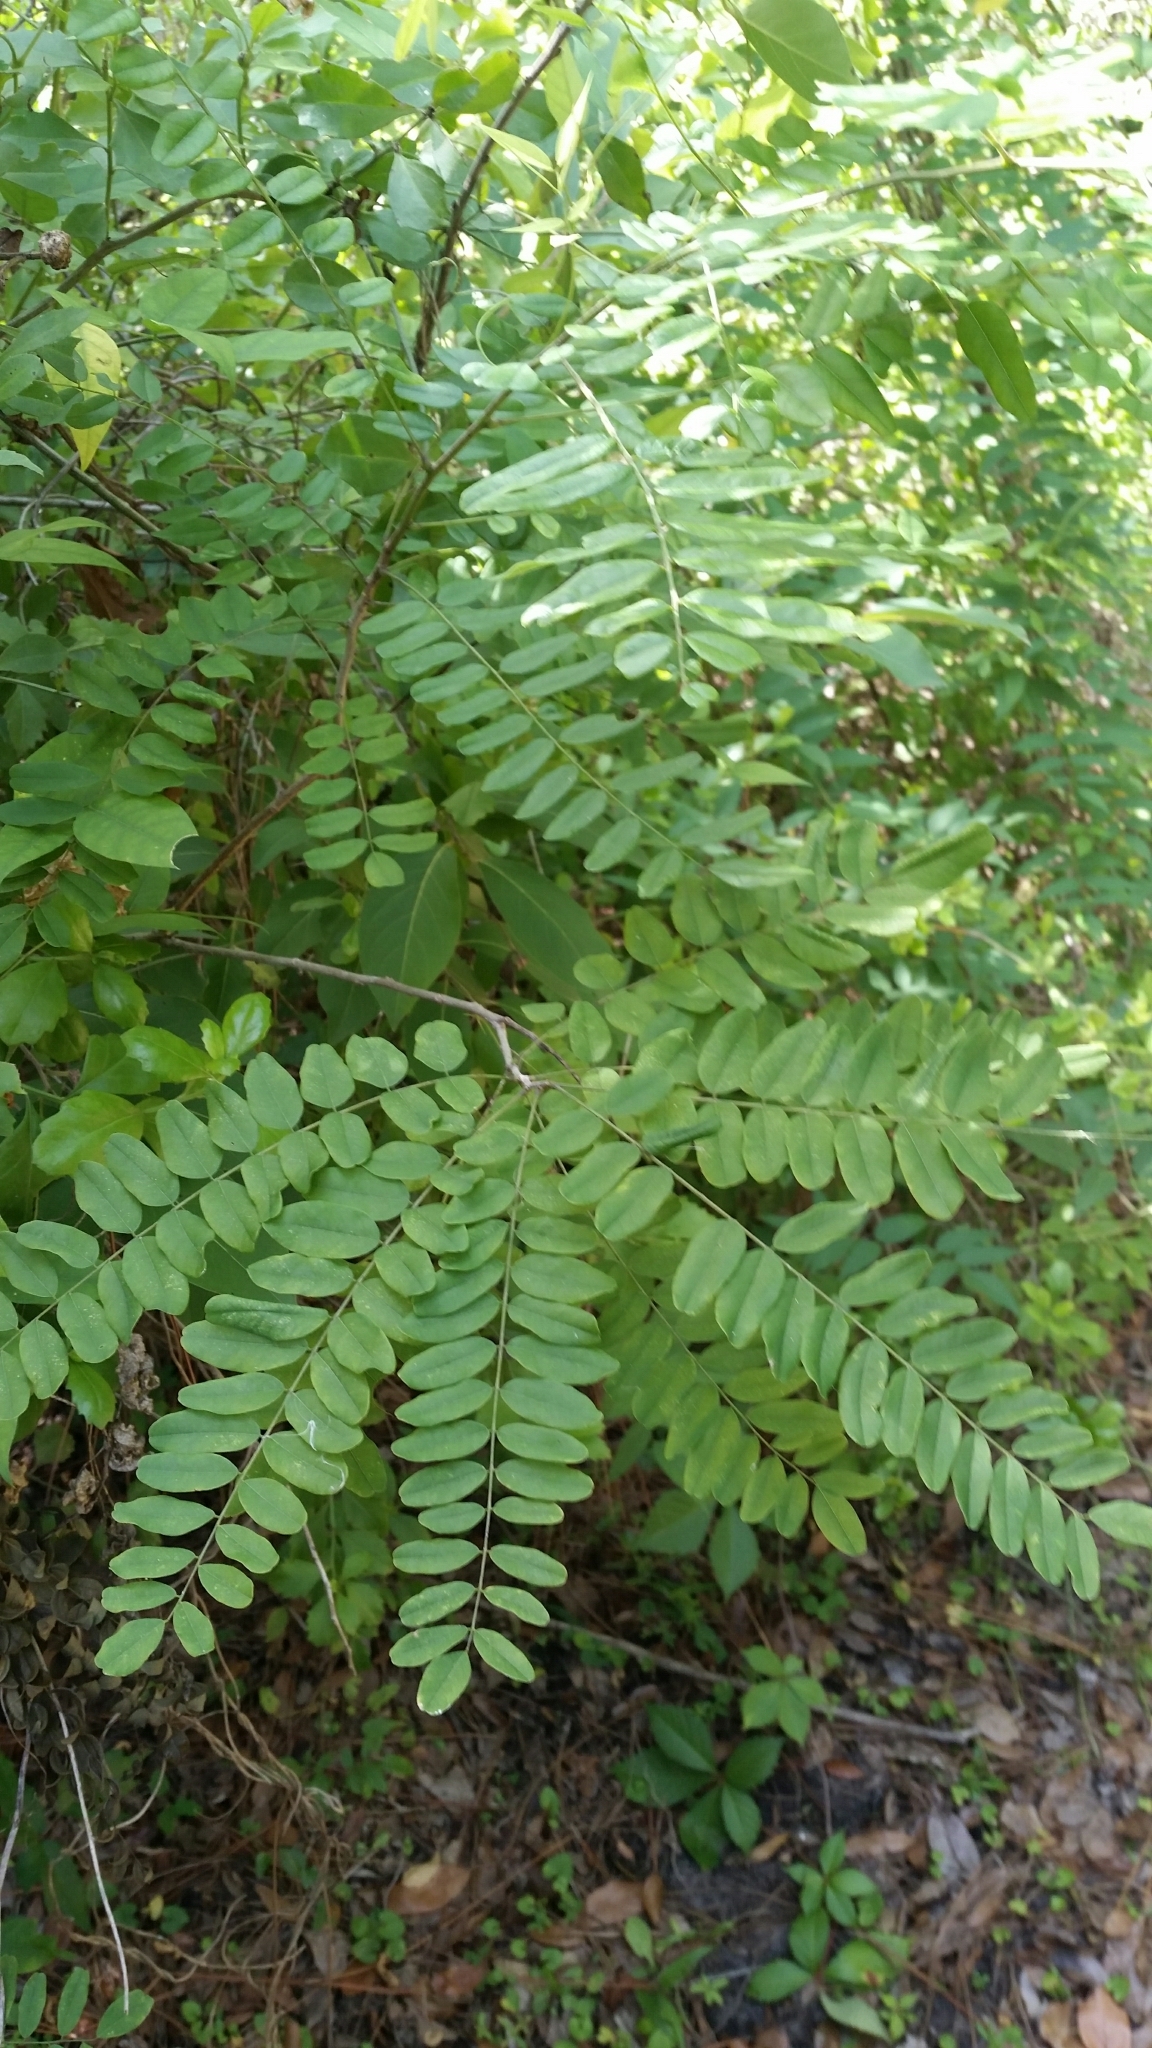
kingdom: Plantae
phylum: Tracheophyta
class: Magnoliopsida
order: Fabales
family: Fabaceae
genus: Amorpha
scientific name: Amorpha fruticosa
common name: False indigo
